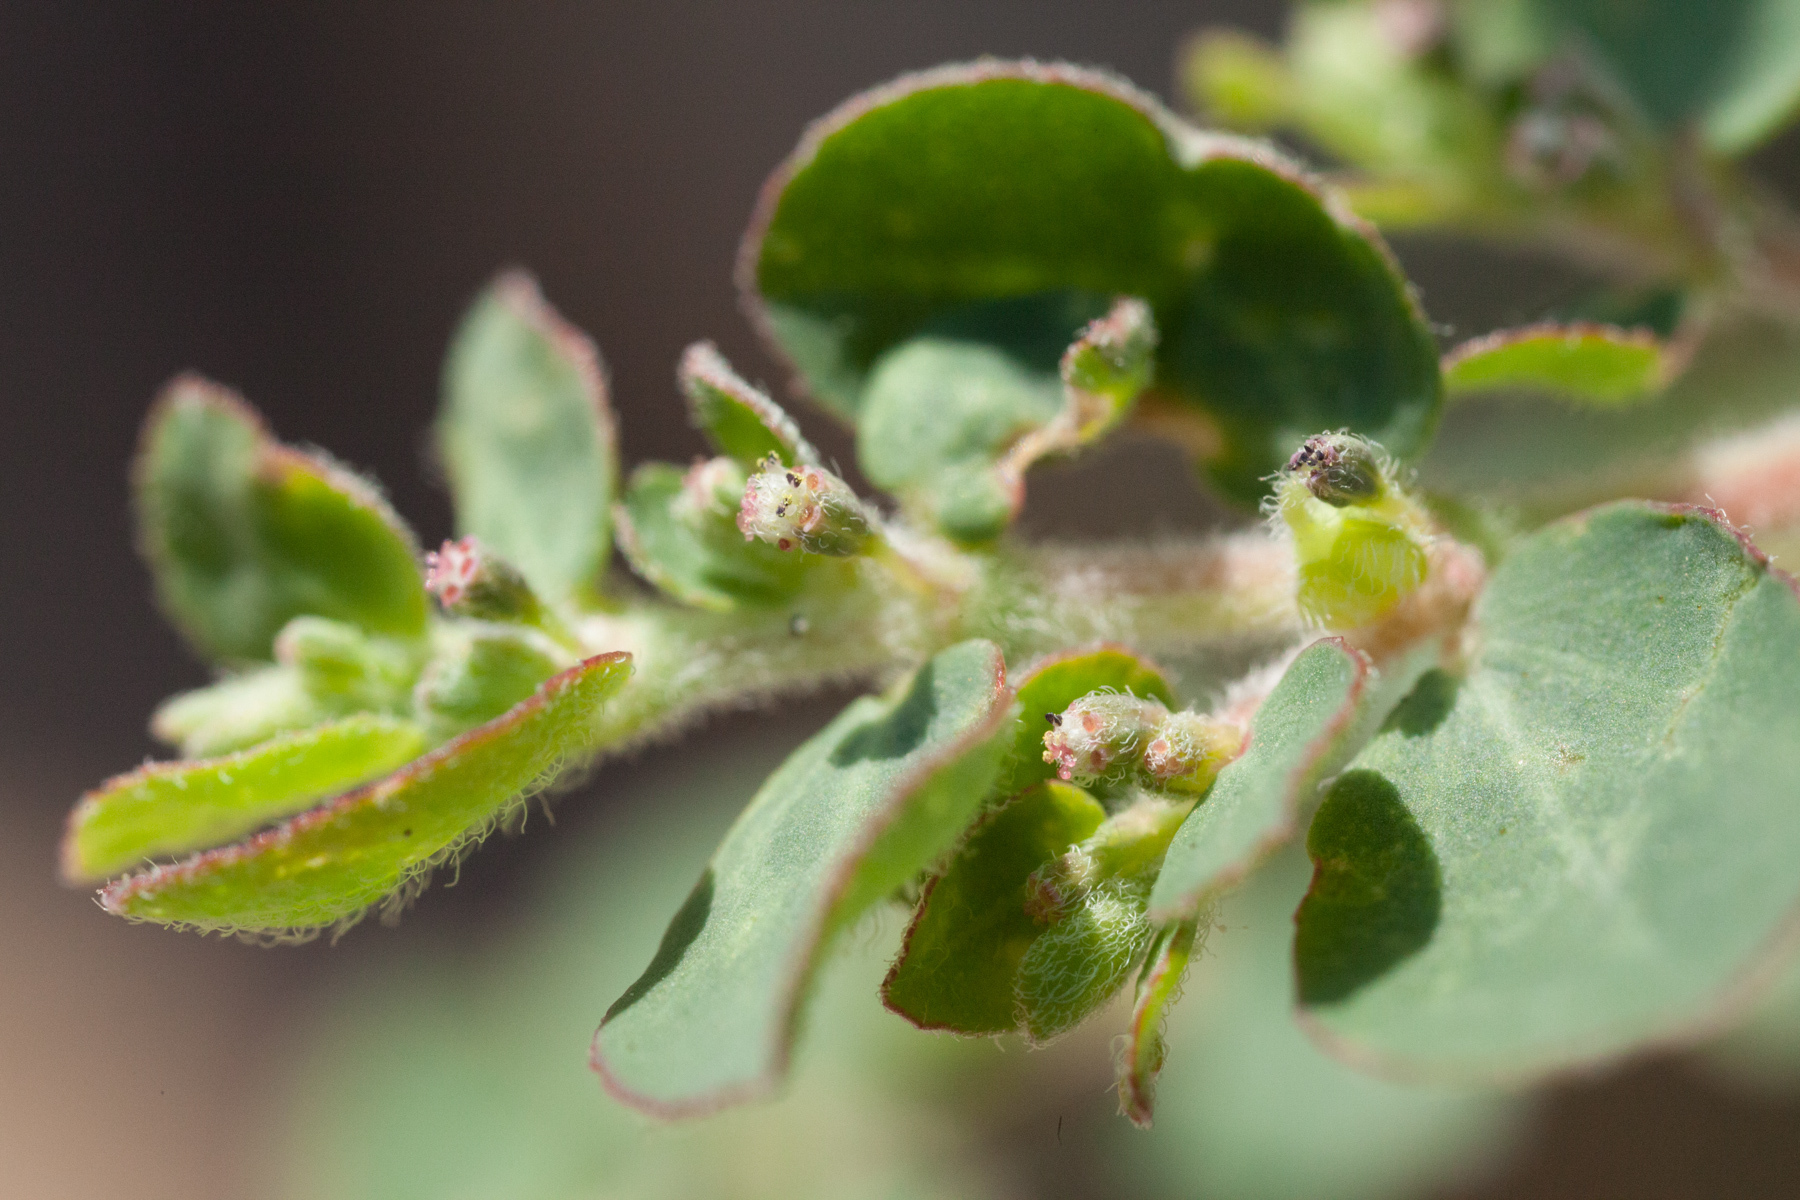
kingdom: Plantae
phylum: Tracheophyta
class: Magnoliopsida
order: Malpighiales
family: Euphorbiaceae
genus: Euphorbia
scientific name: Euphorbia prostrata
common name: Prostrate sandmat
